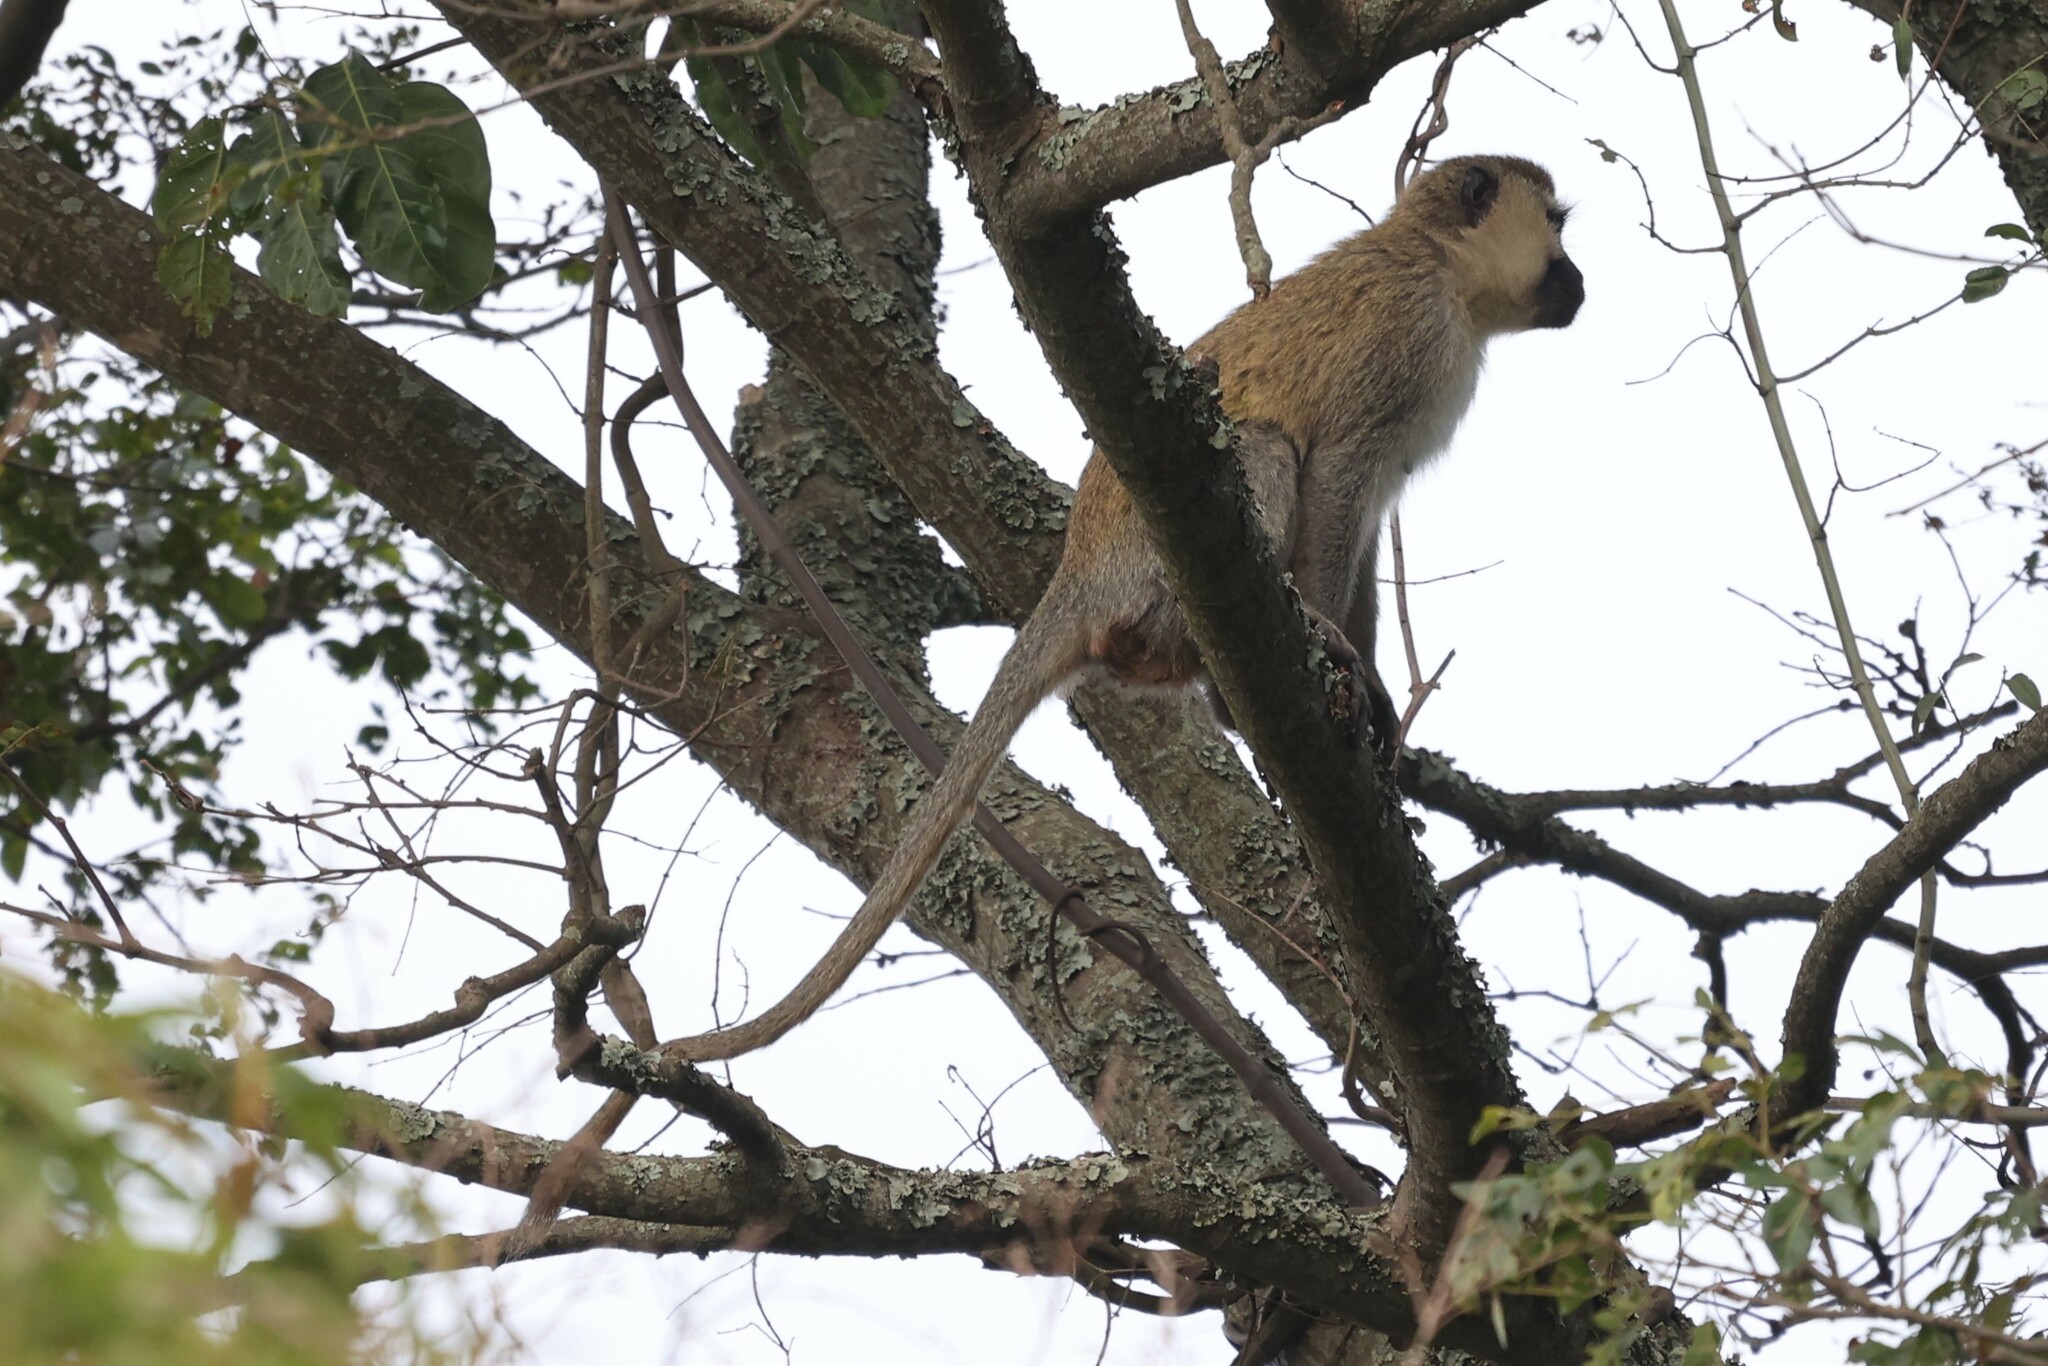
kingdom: Animalia
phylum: Chordata
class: Mammalia
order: Primates
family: Cercopithecidae
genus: Chlorocebus
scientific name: Chlorocebus
